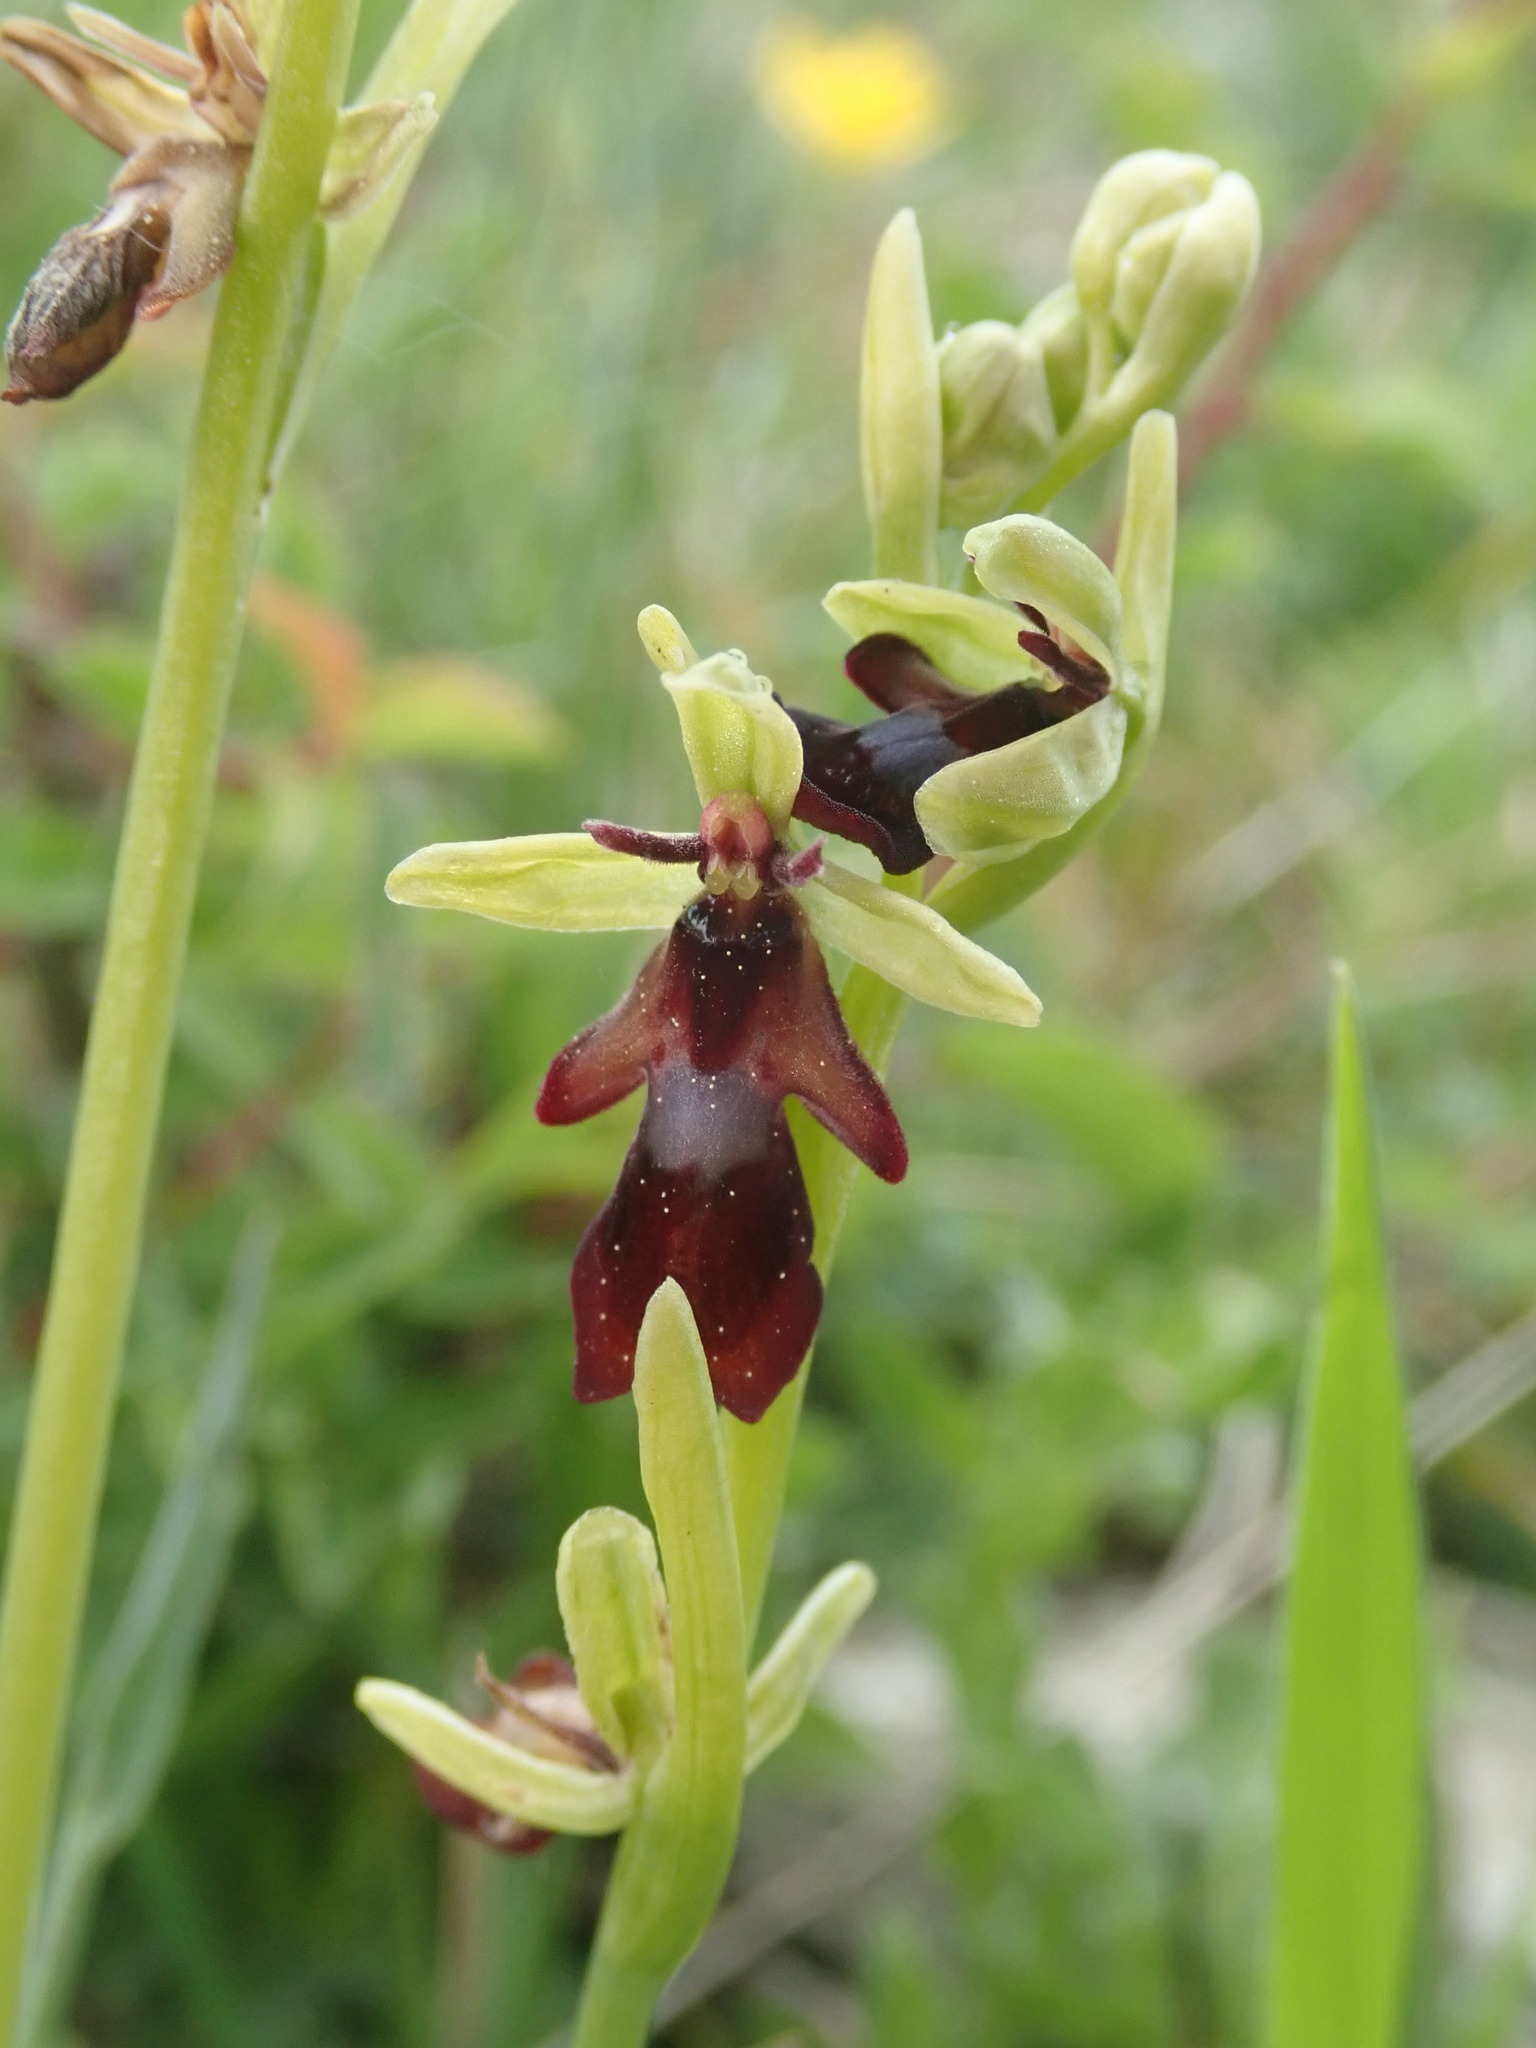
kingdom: Plantae
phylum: Tracheophyta
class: Liliopsida
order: Asparagales
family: Orchidaceae
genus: Ophrys
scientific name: Ophrys insectifera
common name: Fly orchid
